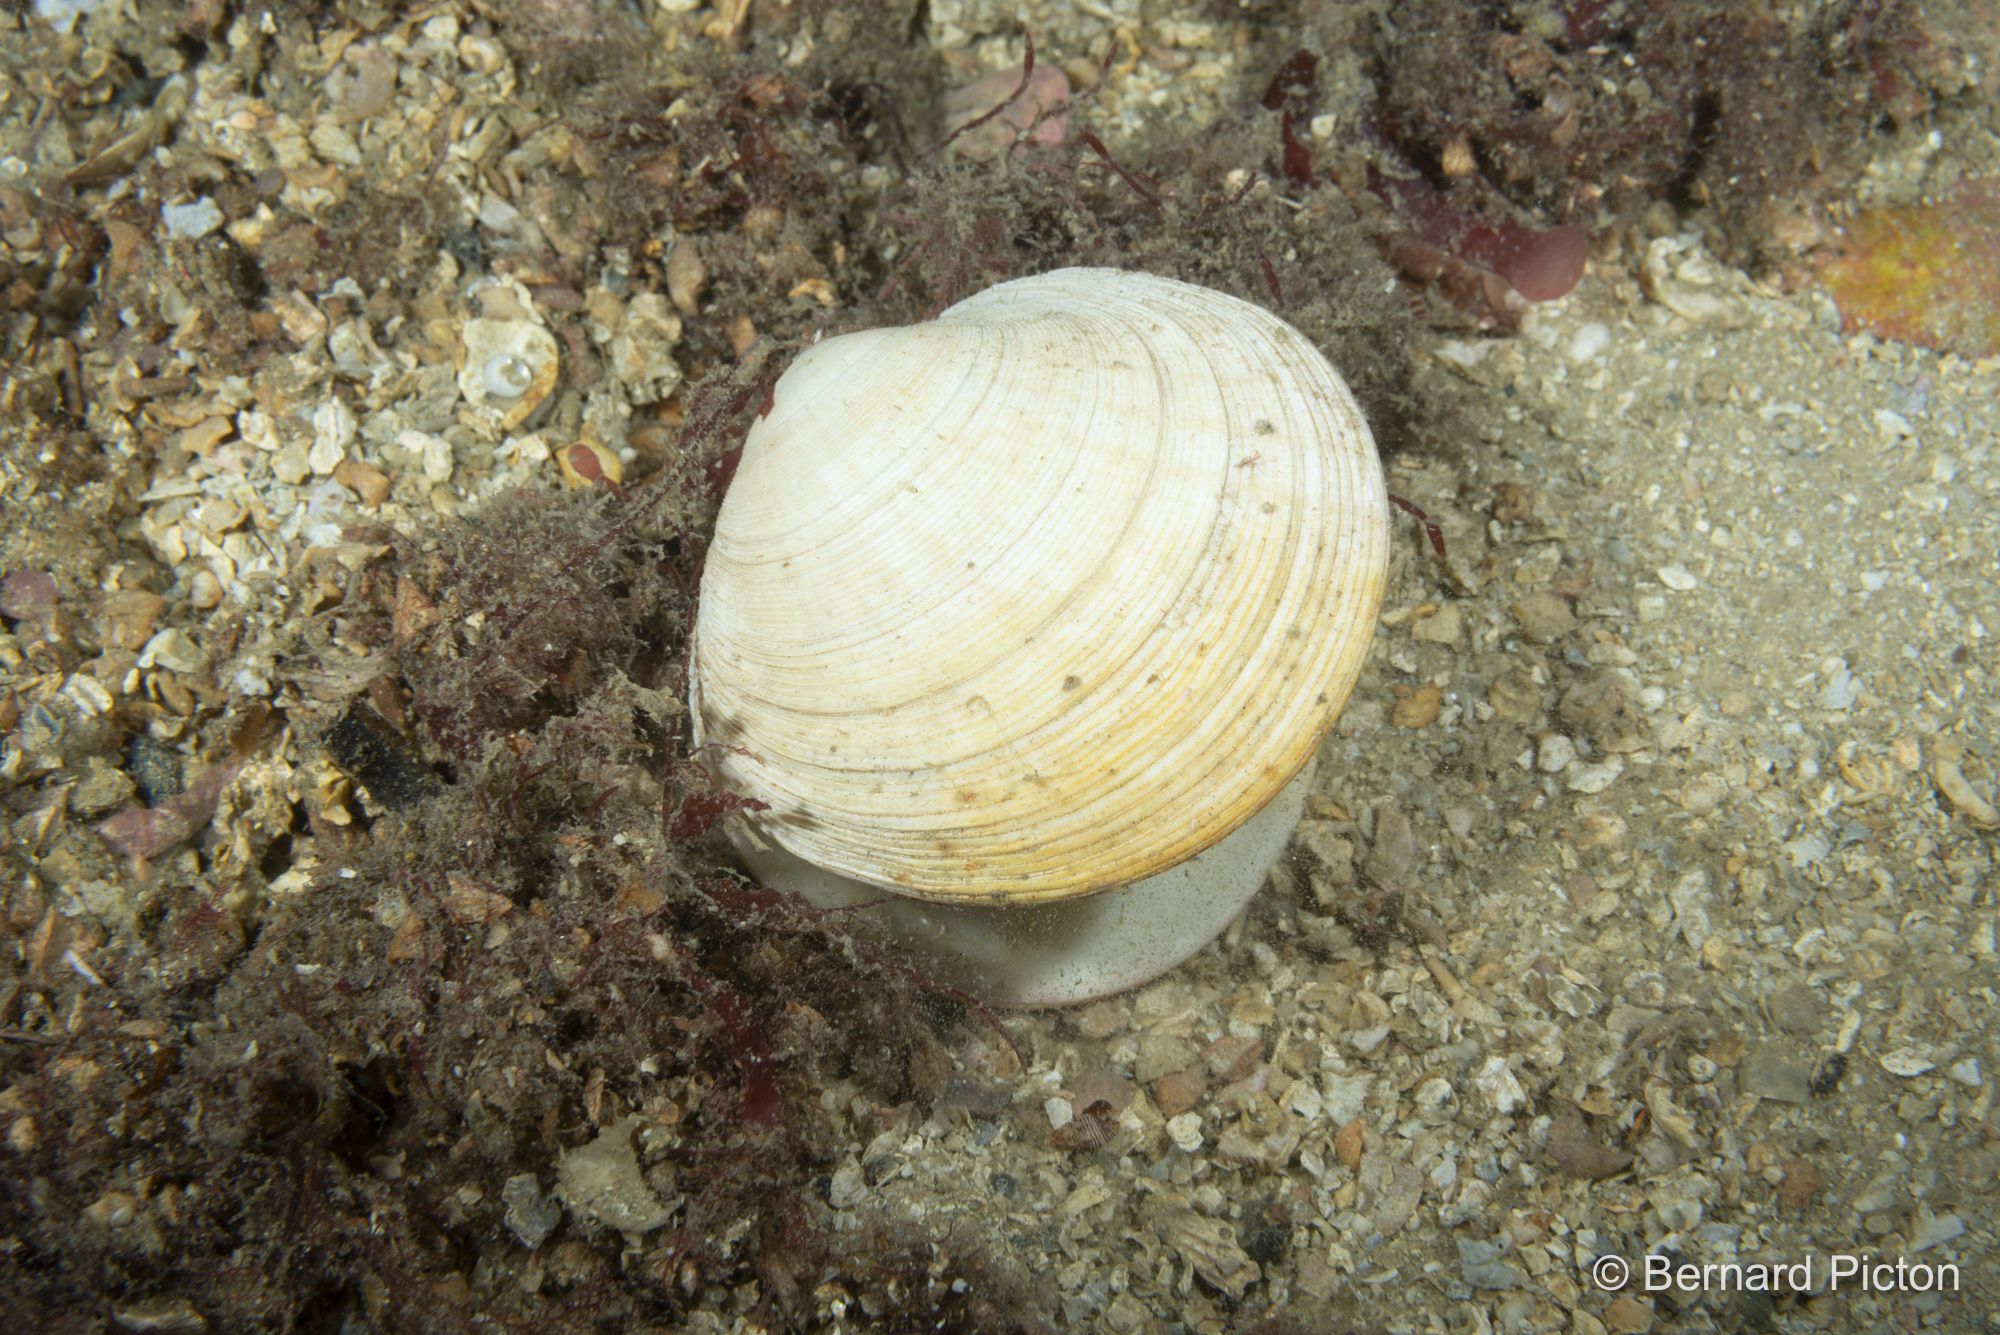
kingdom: Animalia
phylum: Mollusca
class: Bivalvia
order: Venerida
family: Veneridae
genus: Dosinia
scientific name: Dosinia exoleta
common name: Rayed artemis
